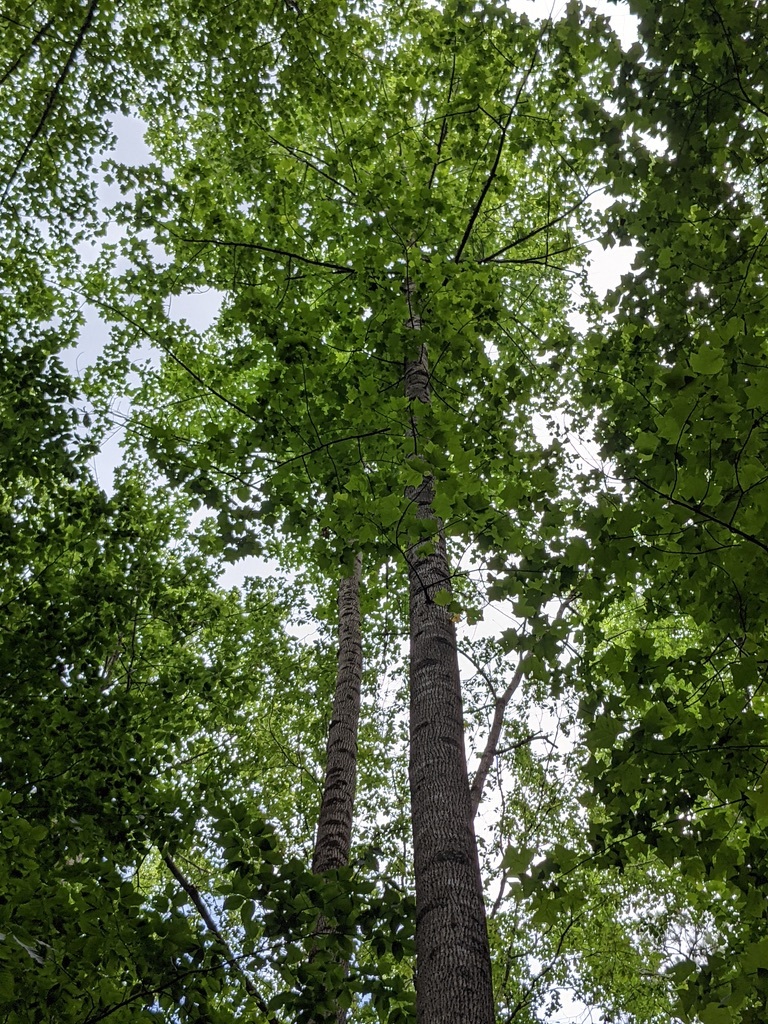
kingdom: Plantae
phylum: Tracheophyta
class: Magnoliopsida
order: Magnoliales
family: Magnoliaceae
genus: Liriodendron
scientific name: Liriodendron tulipifera
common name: Tulip tree
